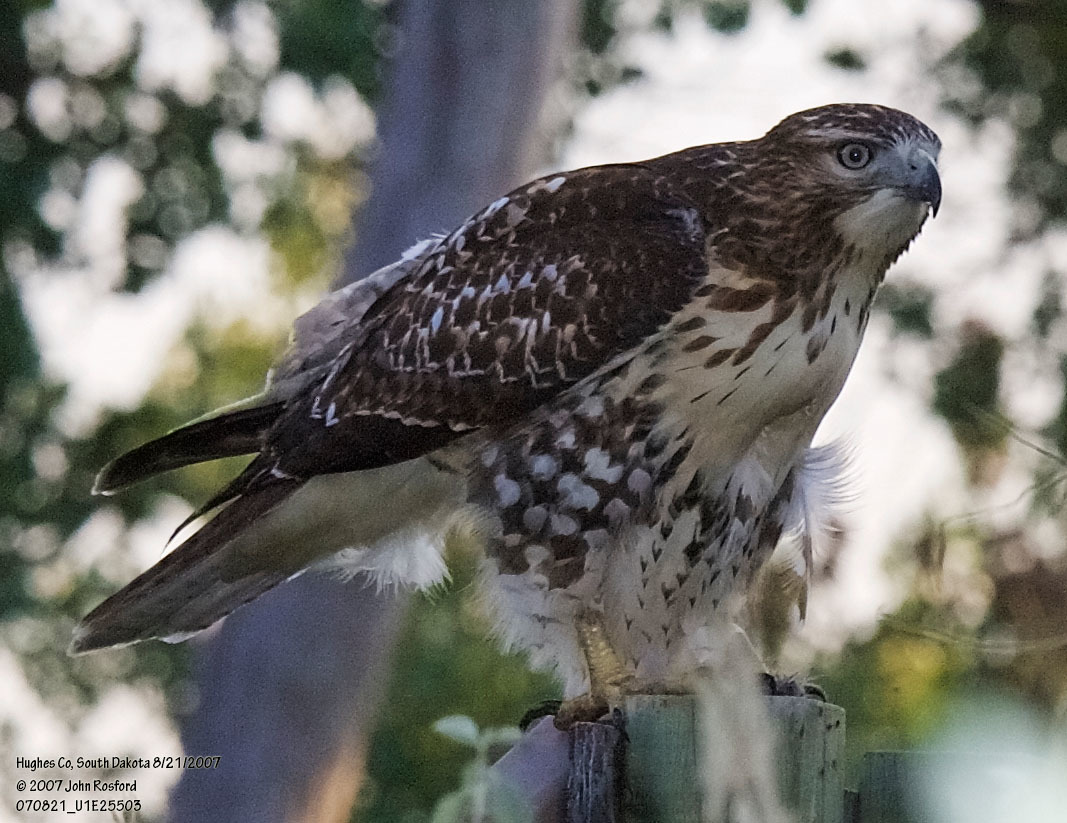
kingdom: Animalia
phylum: Chordata
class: Aves
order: Accipitriformes
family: Accipitridae
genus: Buteo
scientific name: Buteo jamaicensis
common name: Red-tailed hawk
